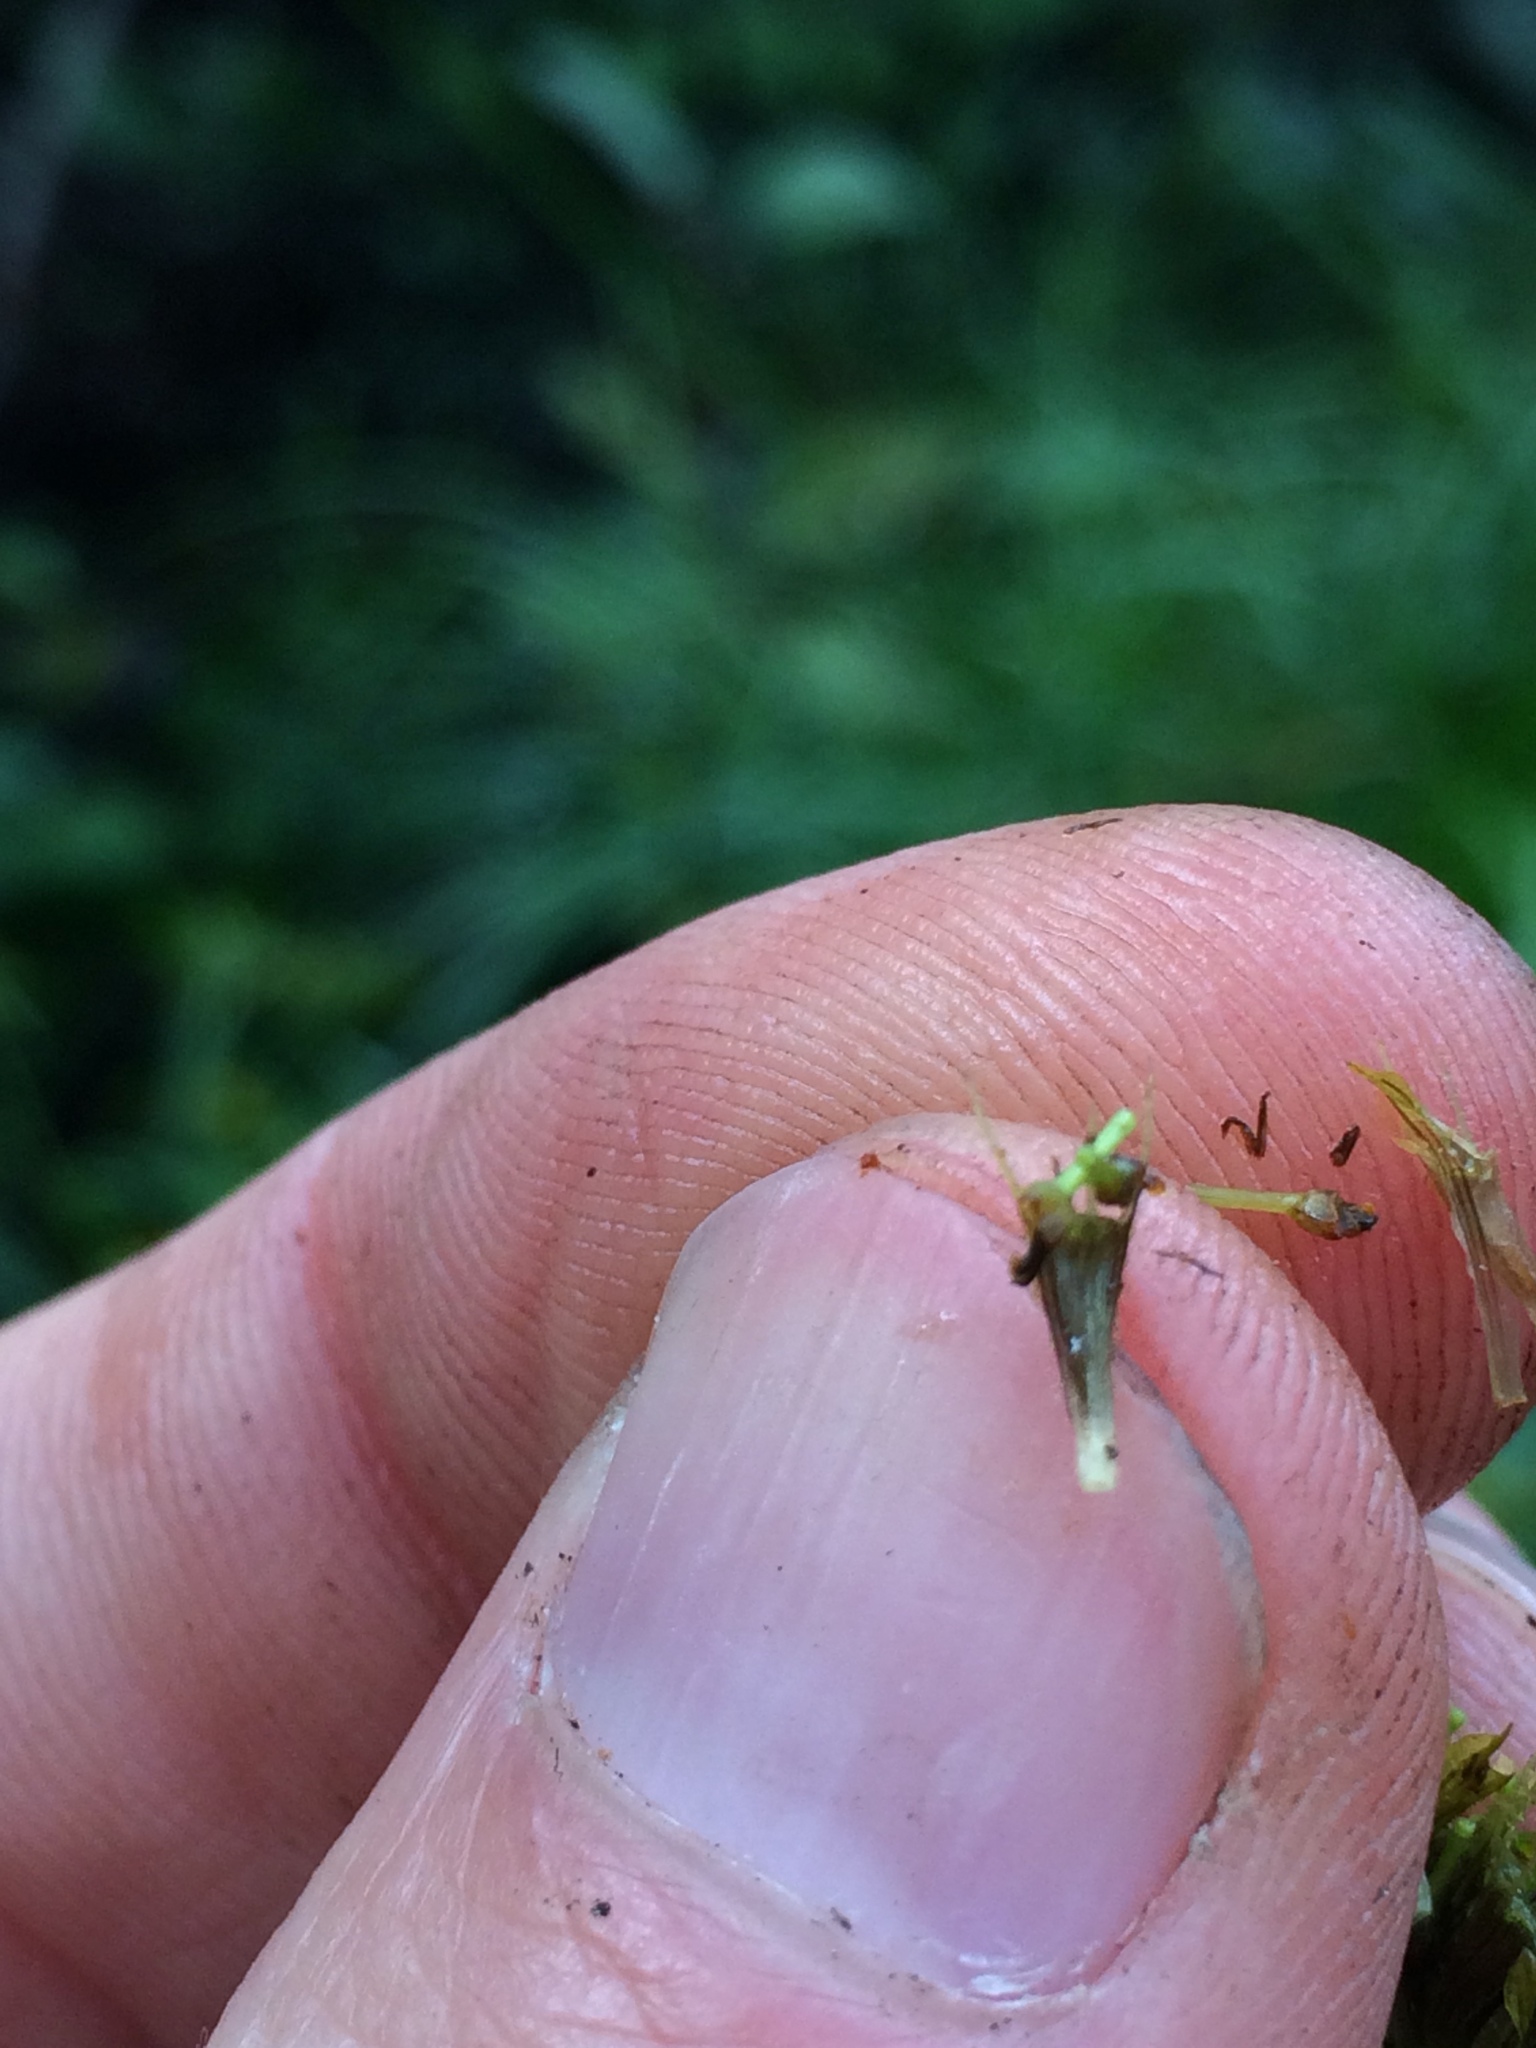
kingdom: Plantae
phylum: Tracheophyta
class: Magnoliopsida
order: Asterales
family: Asteraceae
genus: Bidens
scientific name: Bidens cernua
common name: Nodding bur-marigold
